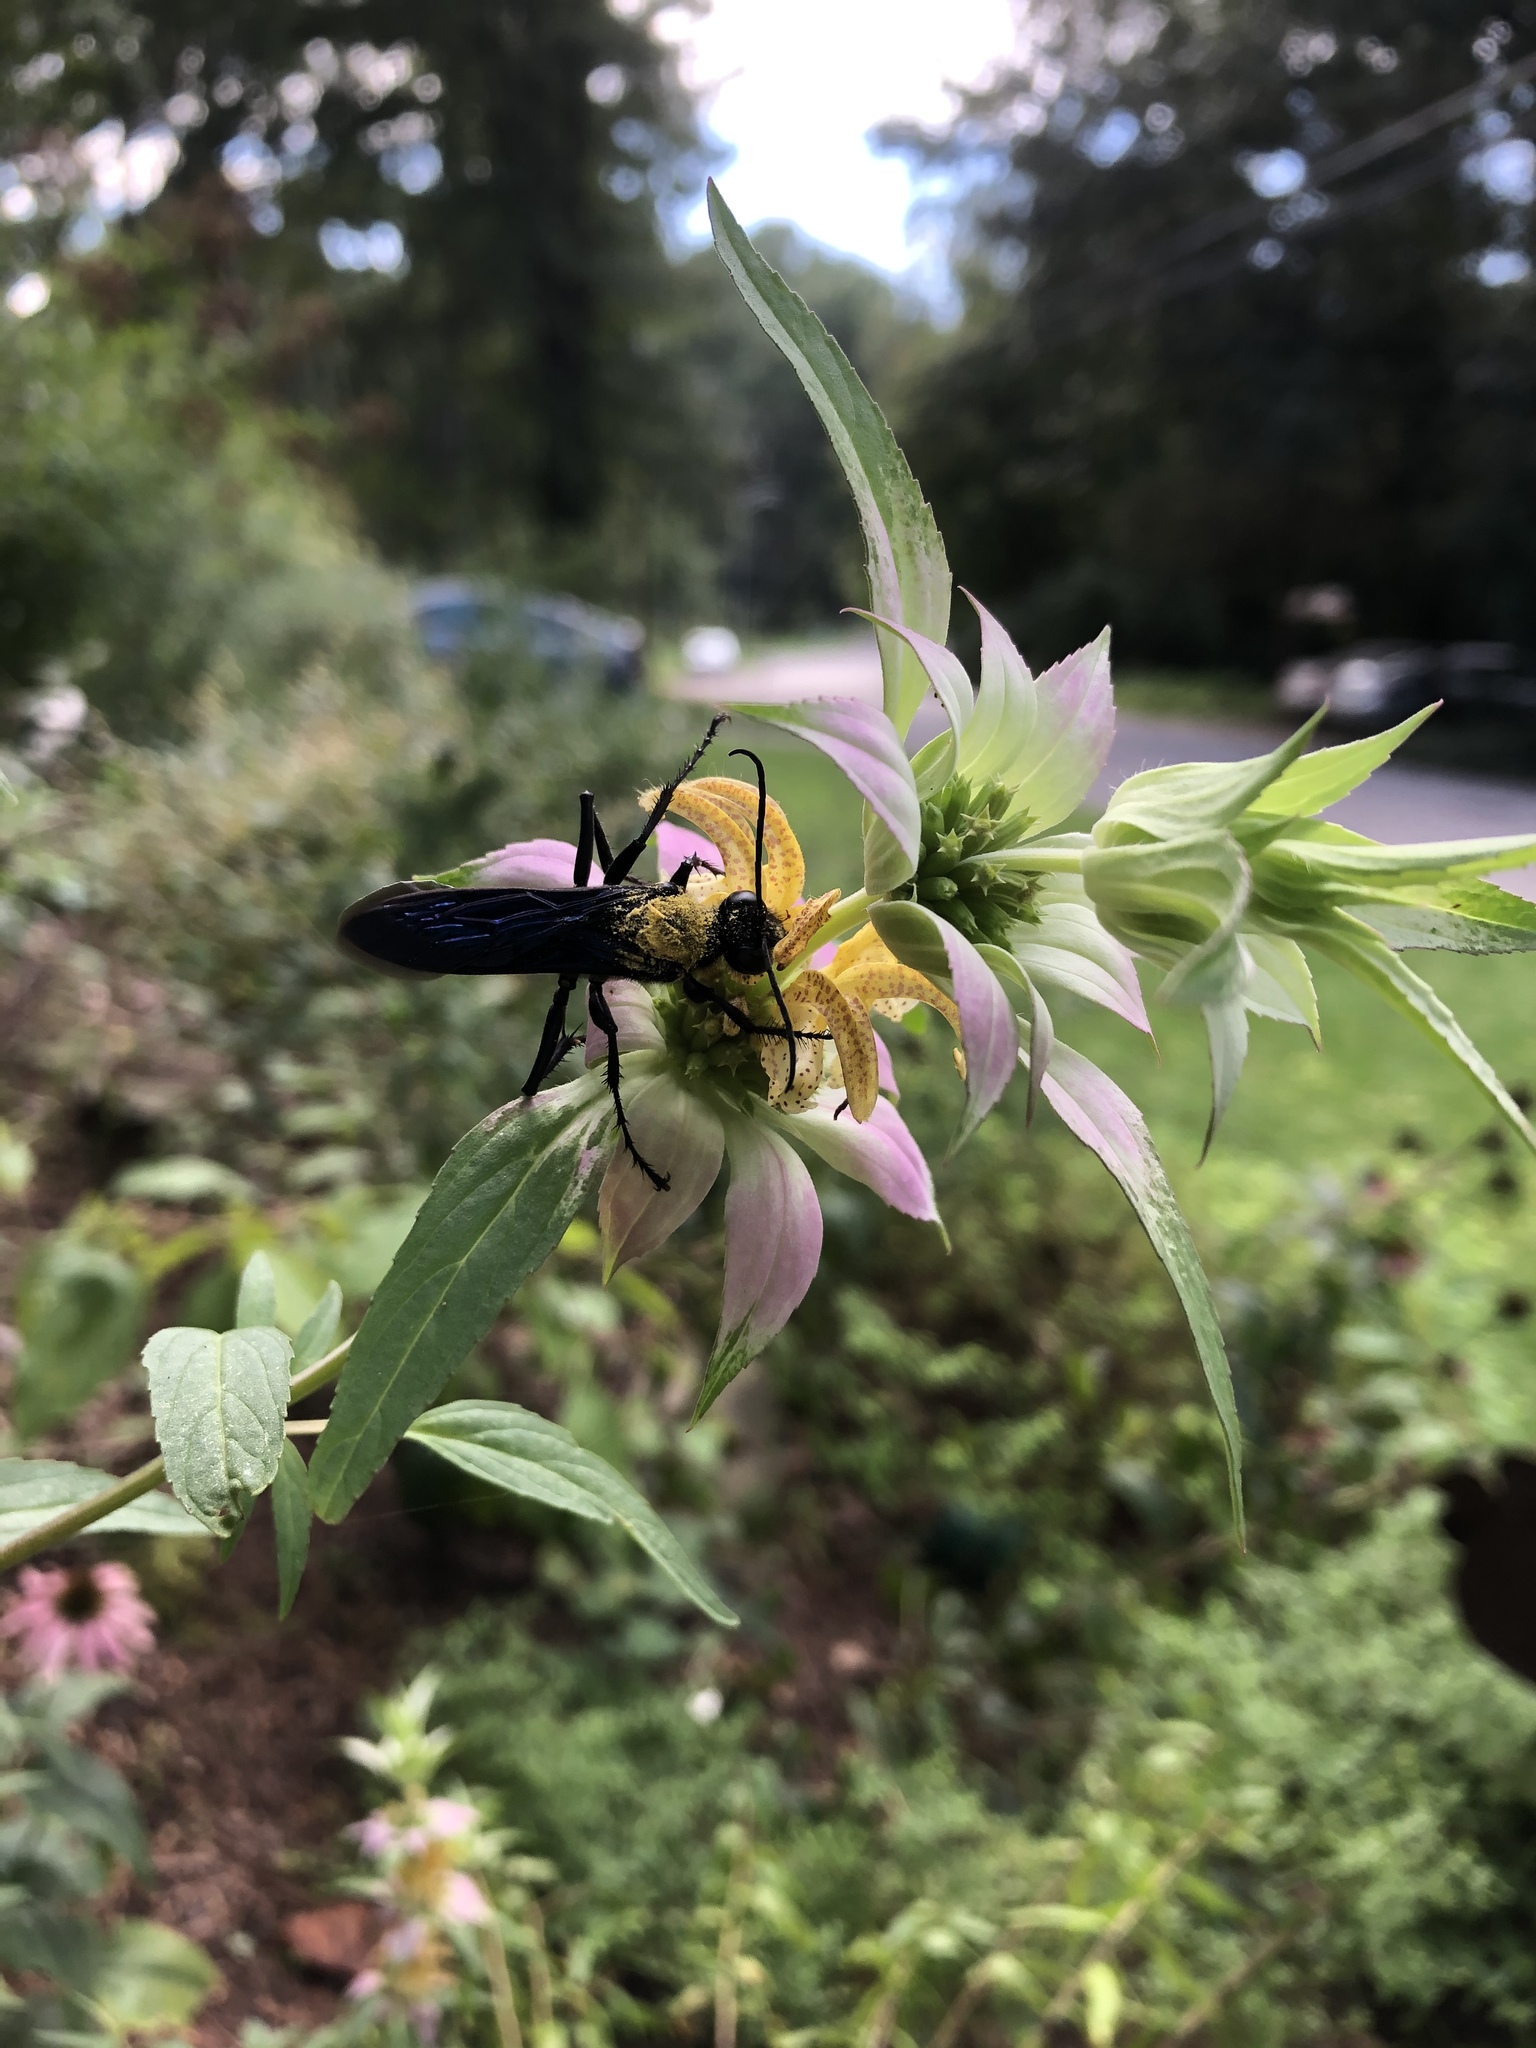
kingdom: Animalia
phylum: Arthropoda
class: Insecta
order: Hymenoptera
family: Sphecidae
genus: Sphex
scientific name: Sphex pensylvanicus
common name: Great black digger wasp
